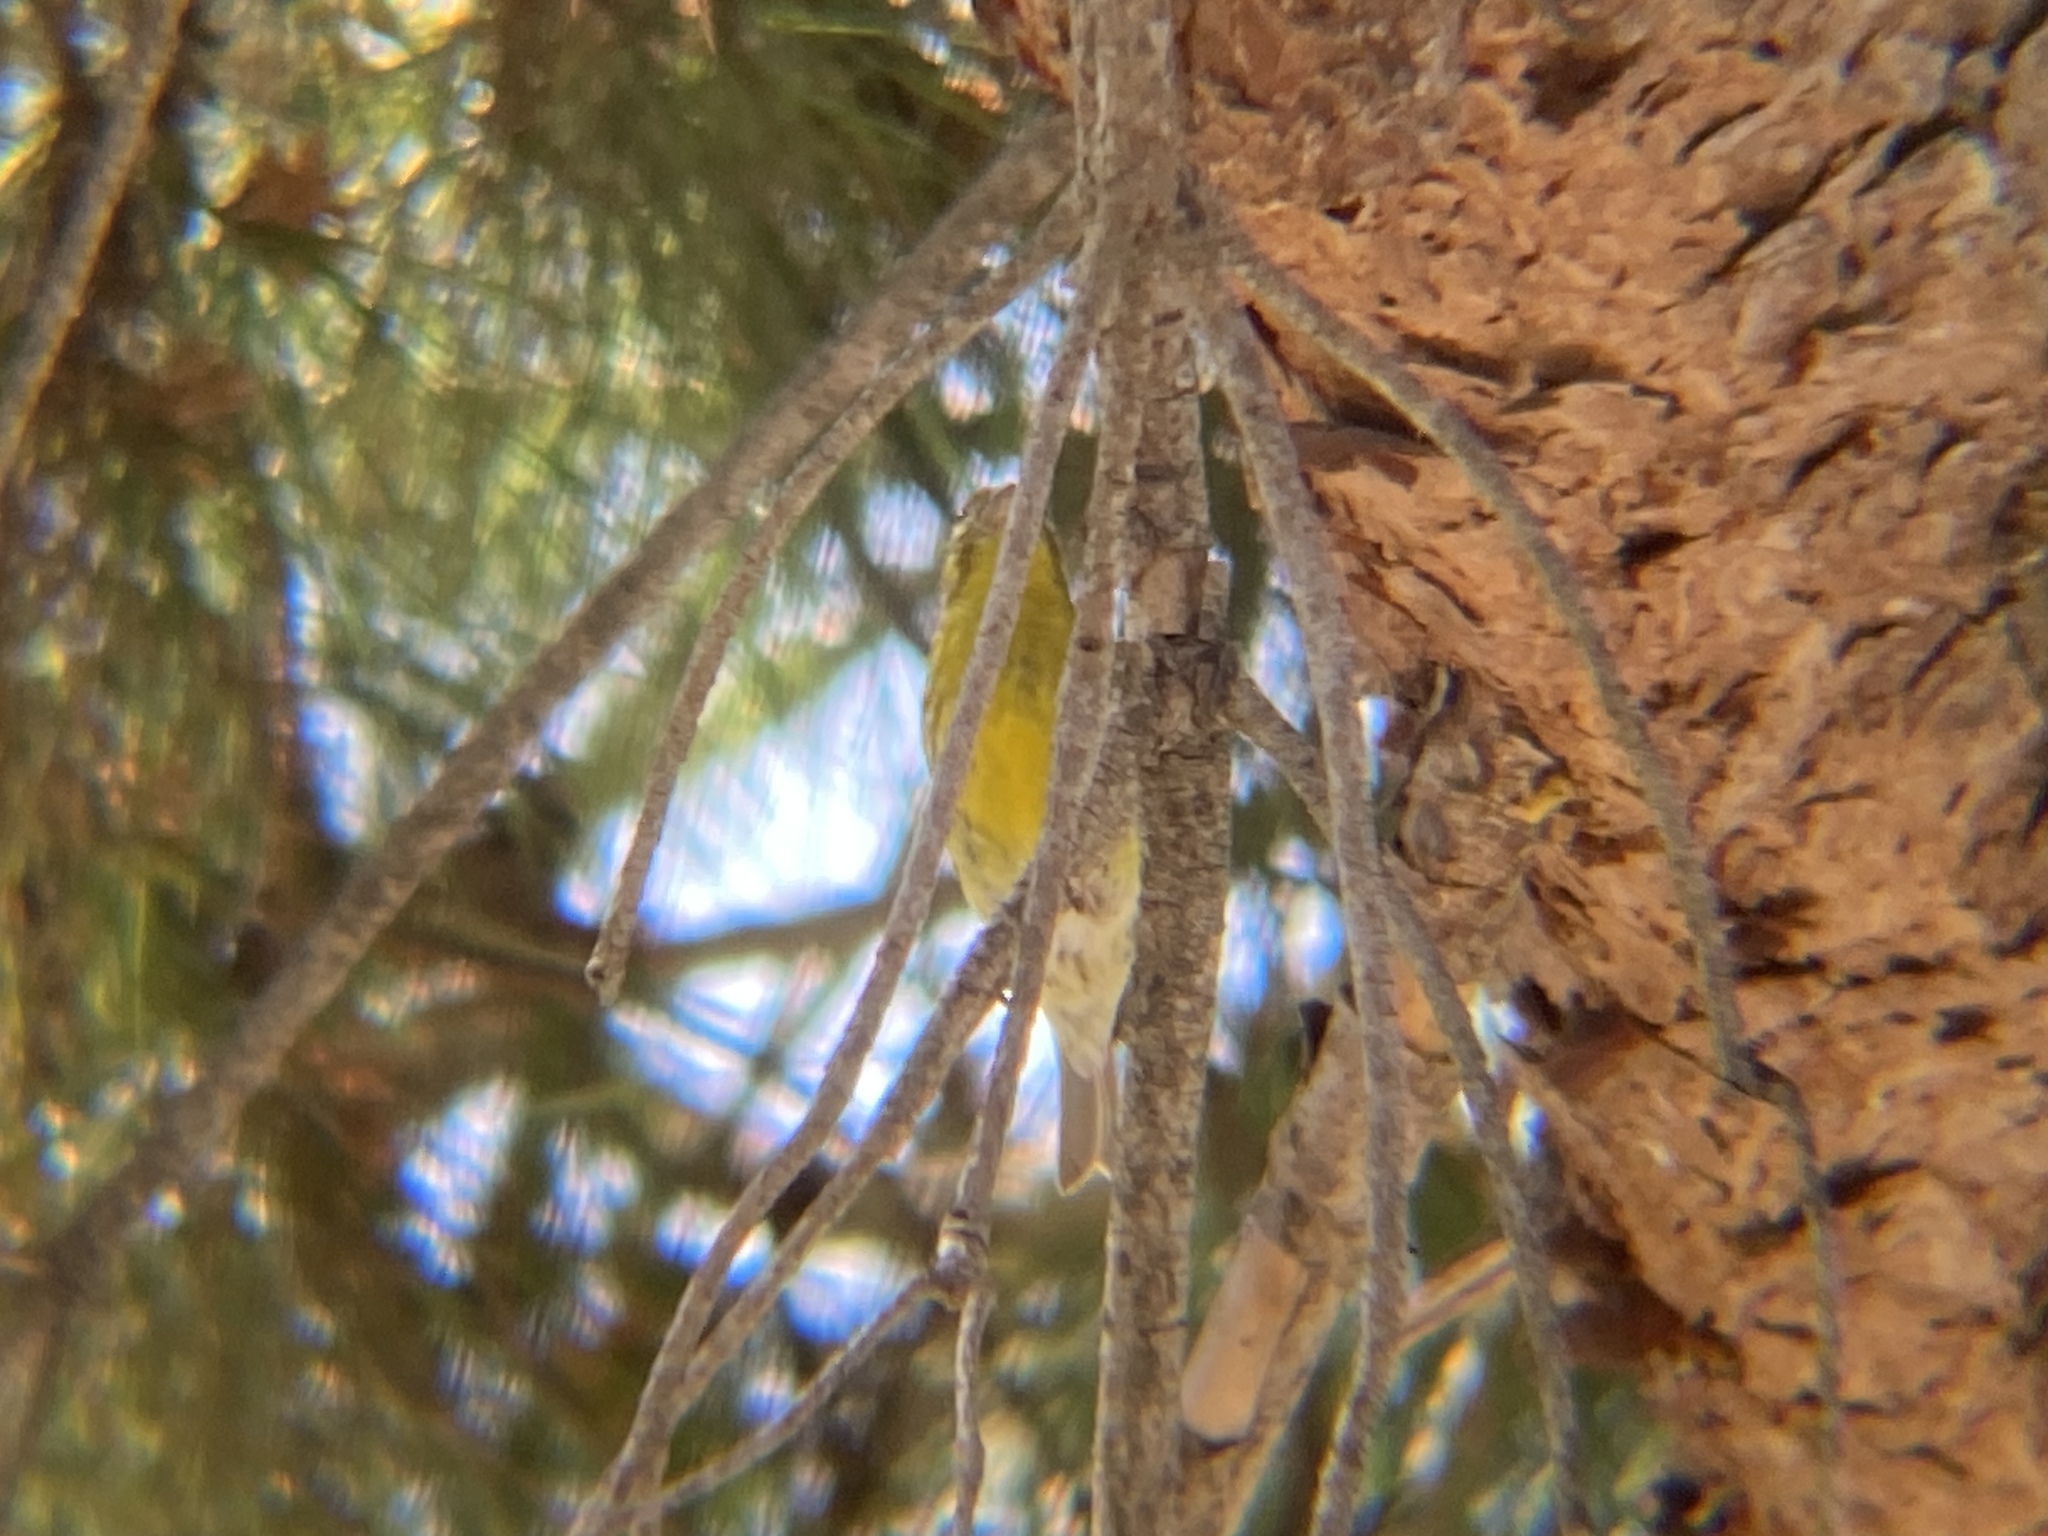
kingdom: Animalia
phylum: Chordata
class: Aves
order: Passeriformes
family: Fringillidae
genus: Serinus
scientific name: Serinus serinus
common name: European serin
